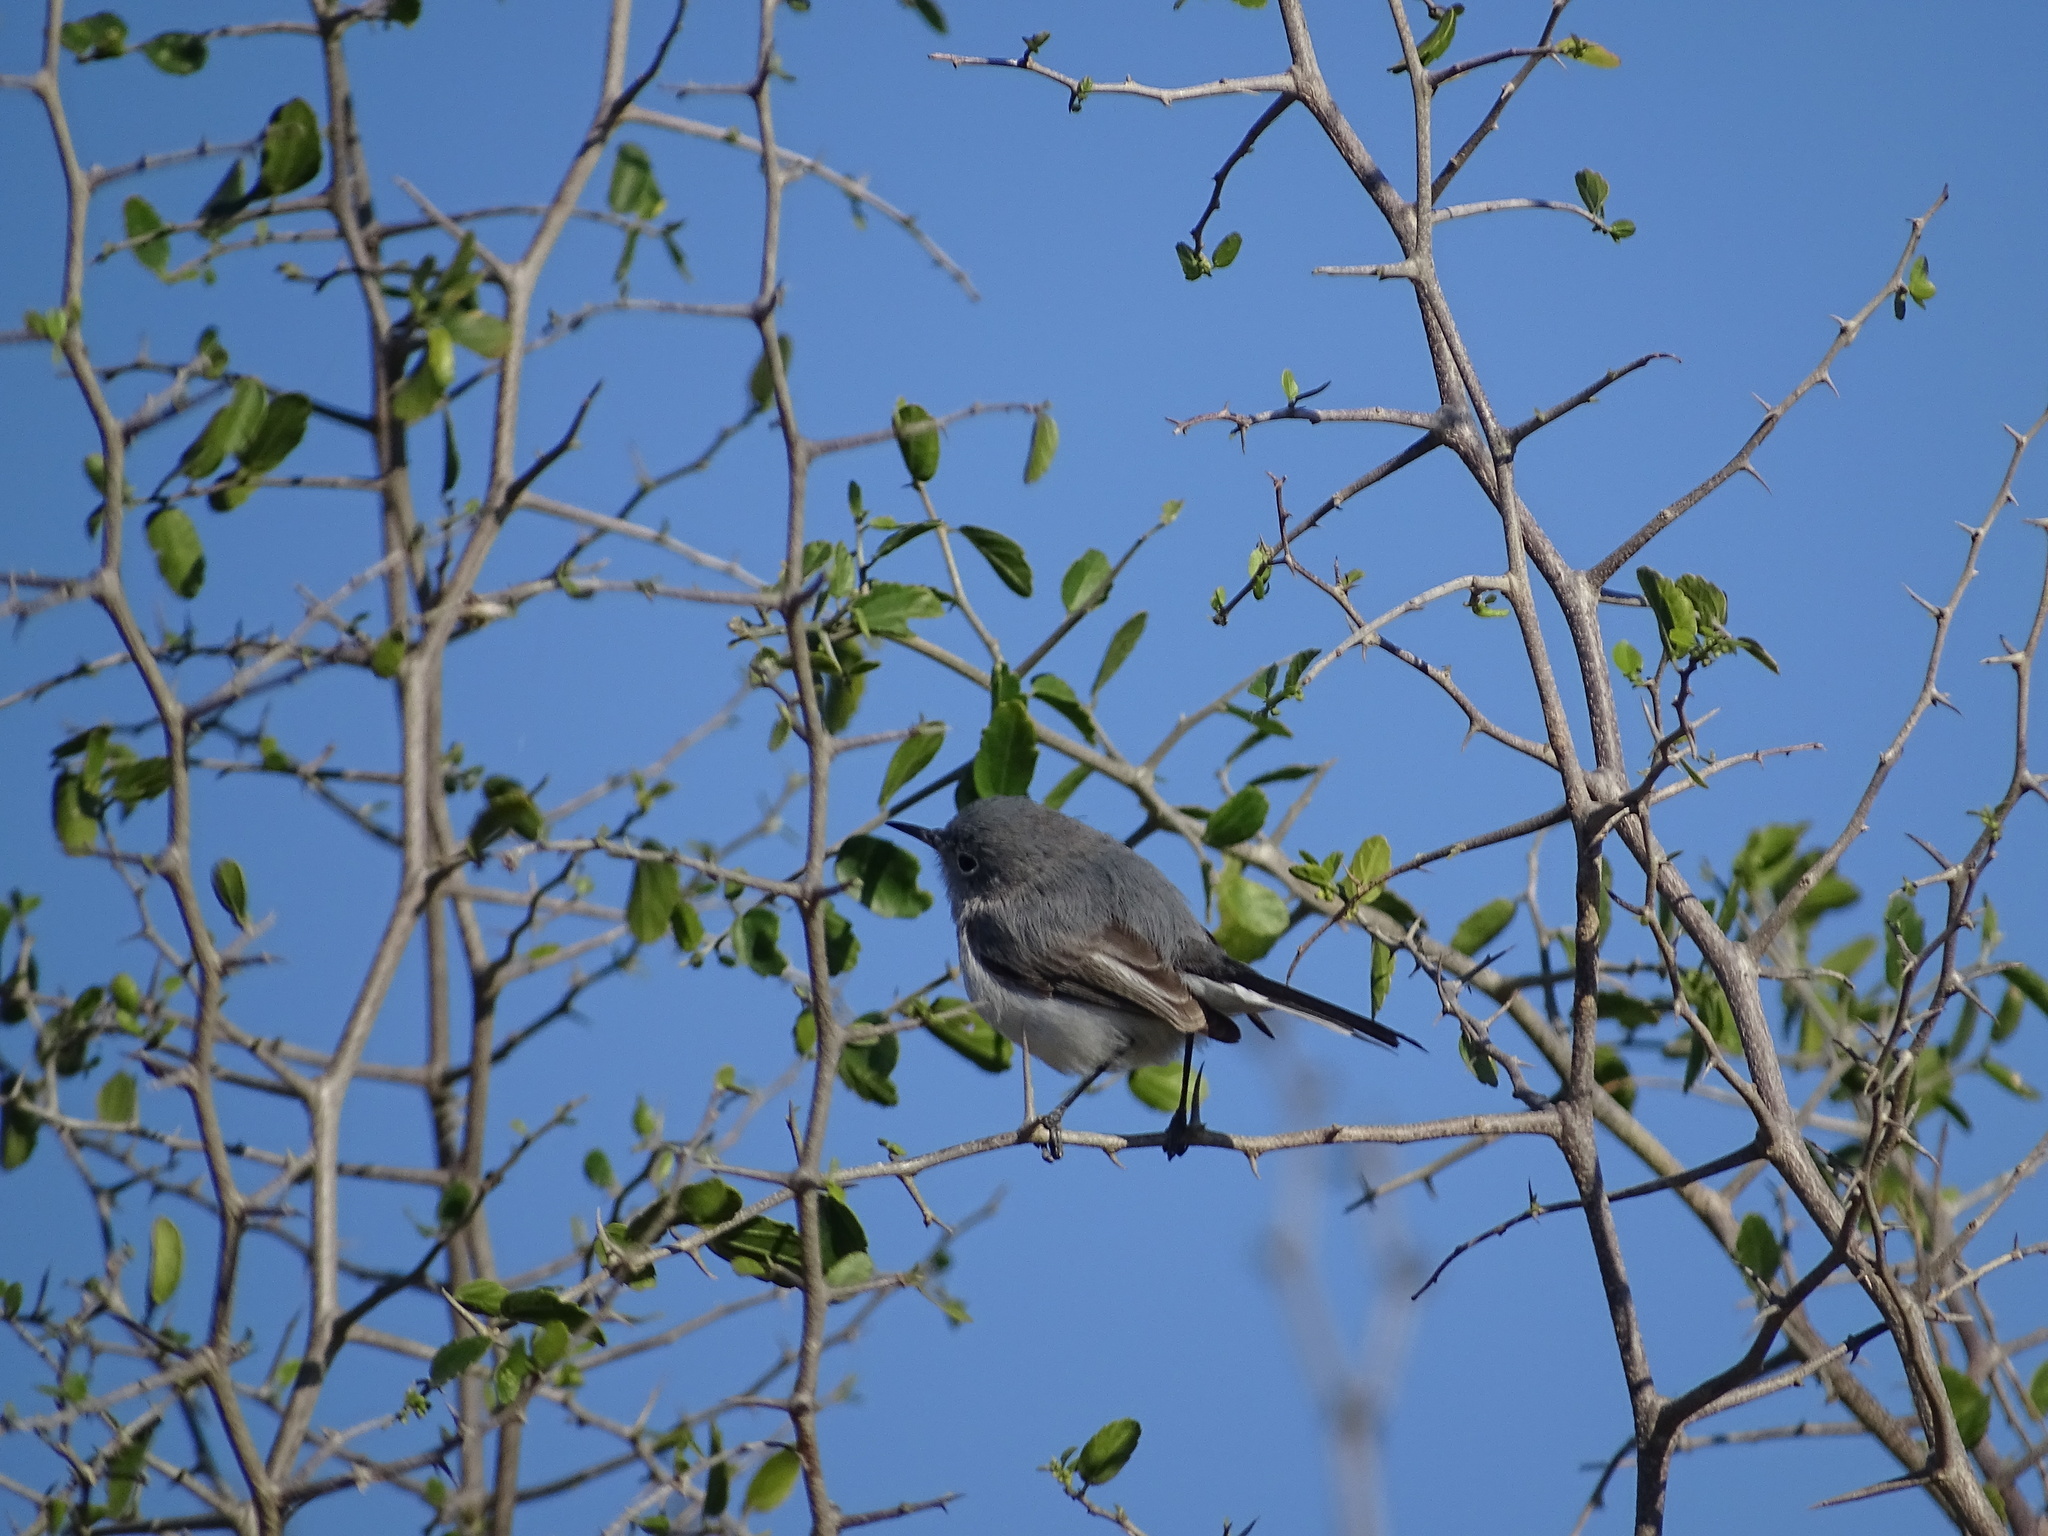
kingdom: Animalia
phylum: Chordata
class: Aves
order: Passeriformes
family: Polioptilidae
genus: Polioptila
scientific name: Polioptila caerulea
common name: Blue-gray gnatcatcher
